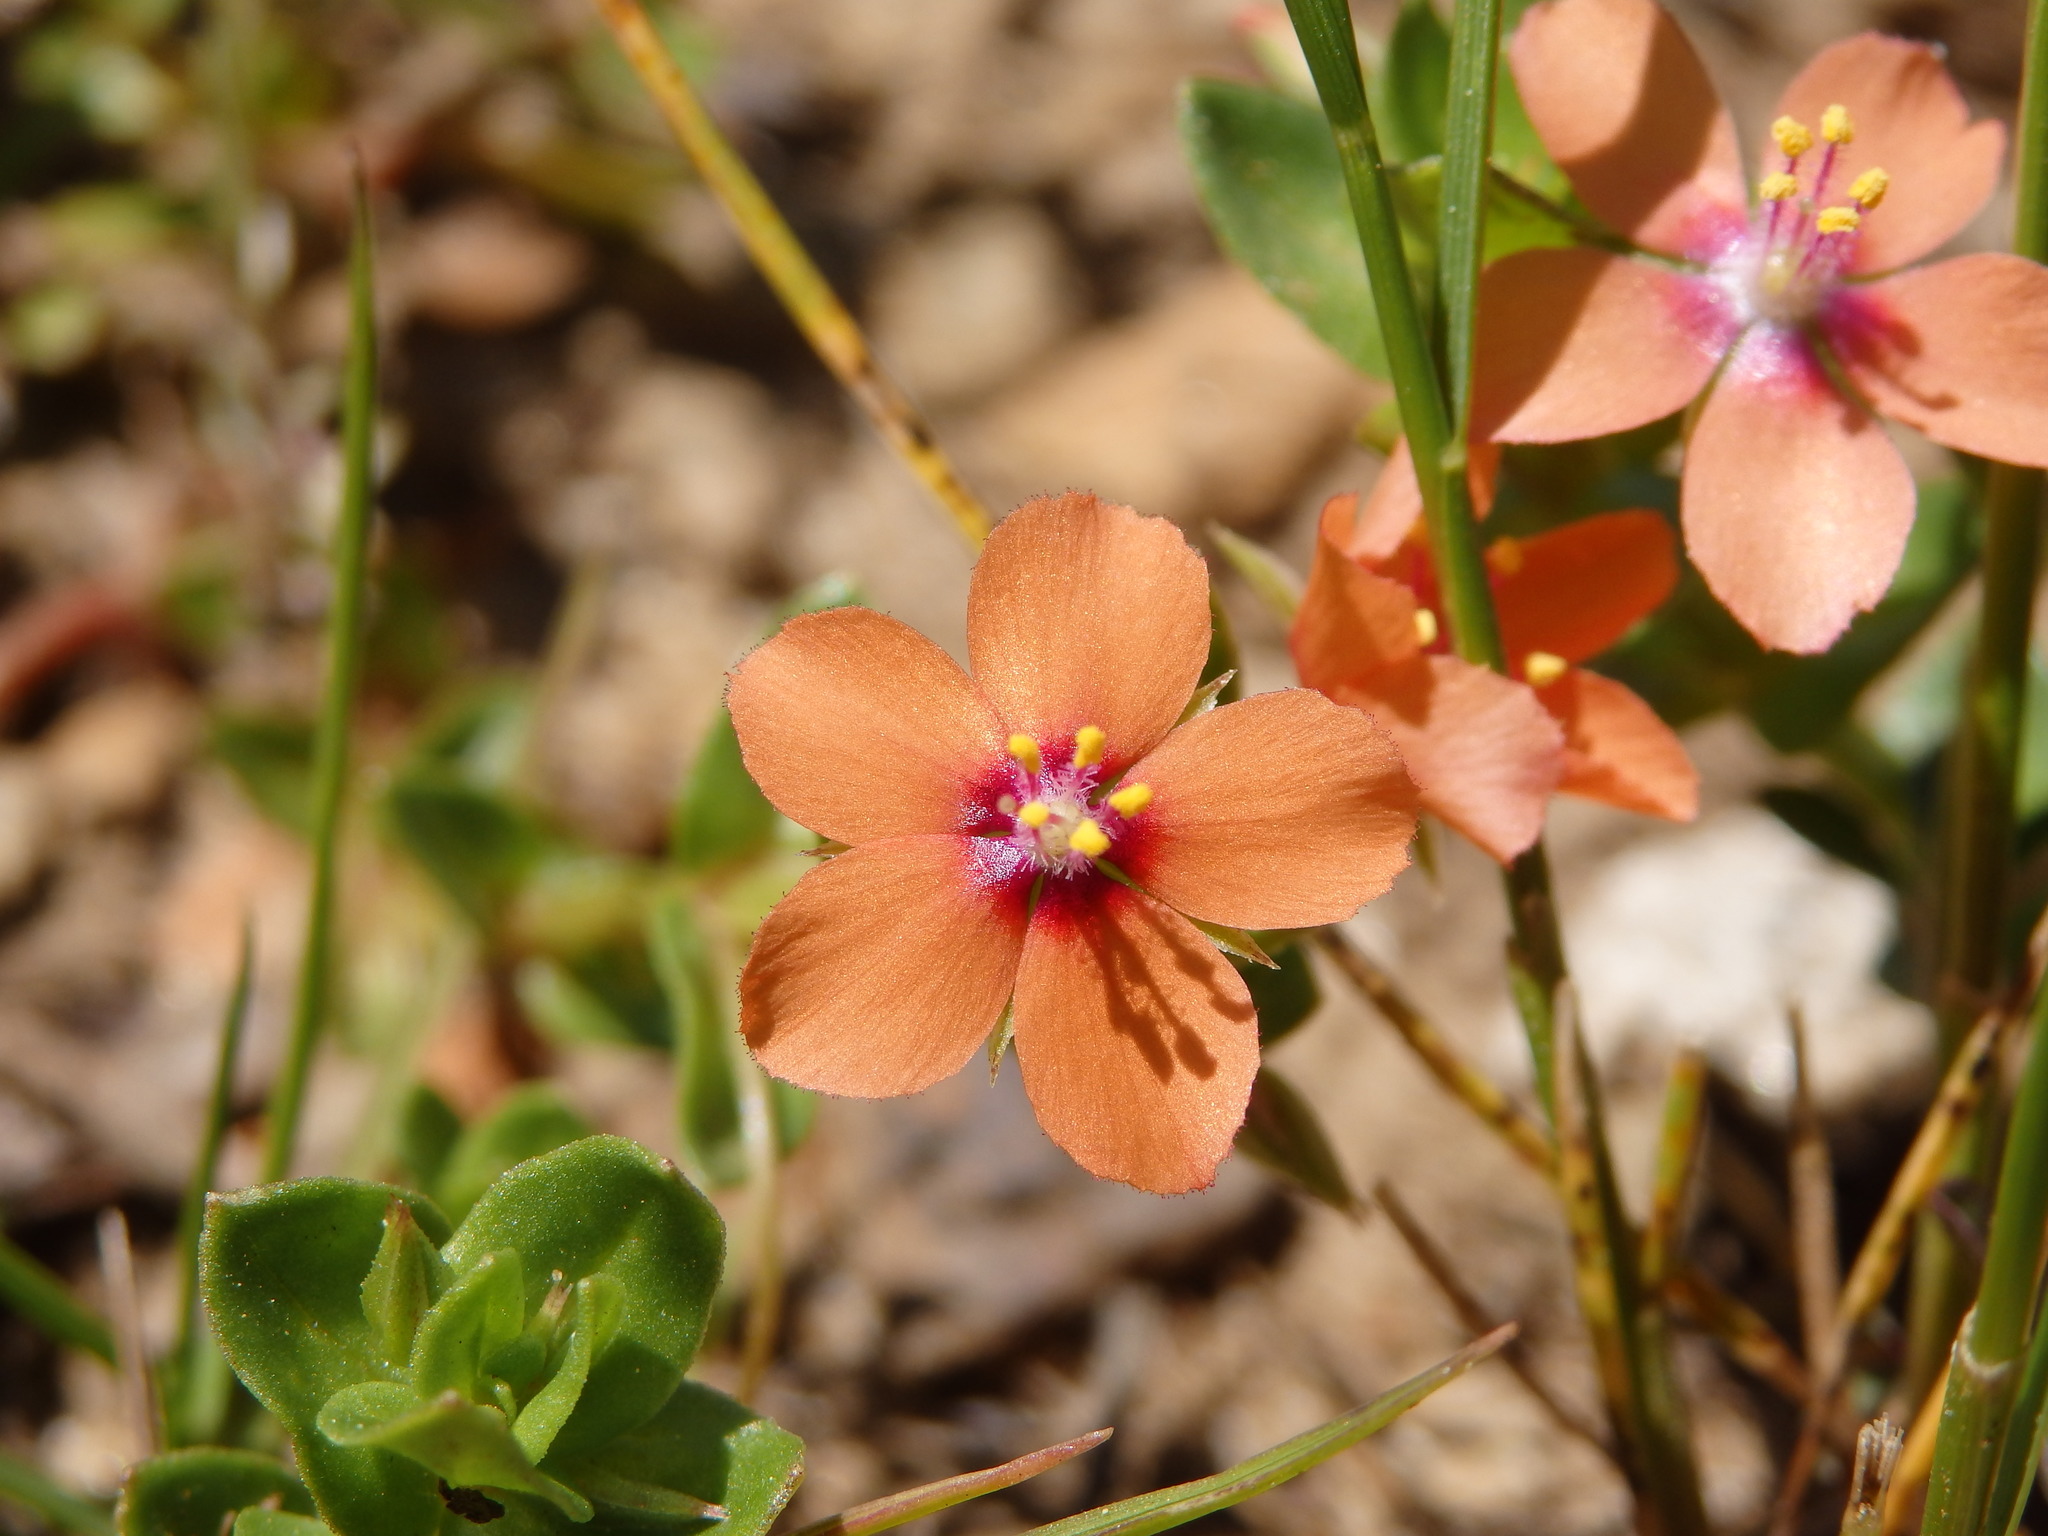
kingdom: Plantae
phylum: Tracheophyta
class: Magnoliopsida
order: Ericales
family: Primulaceae
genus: Lysimachia
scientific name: Lysimachia arvensis
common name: Scarlet pimpernel
